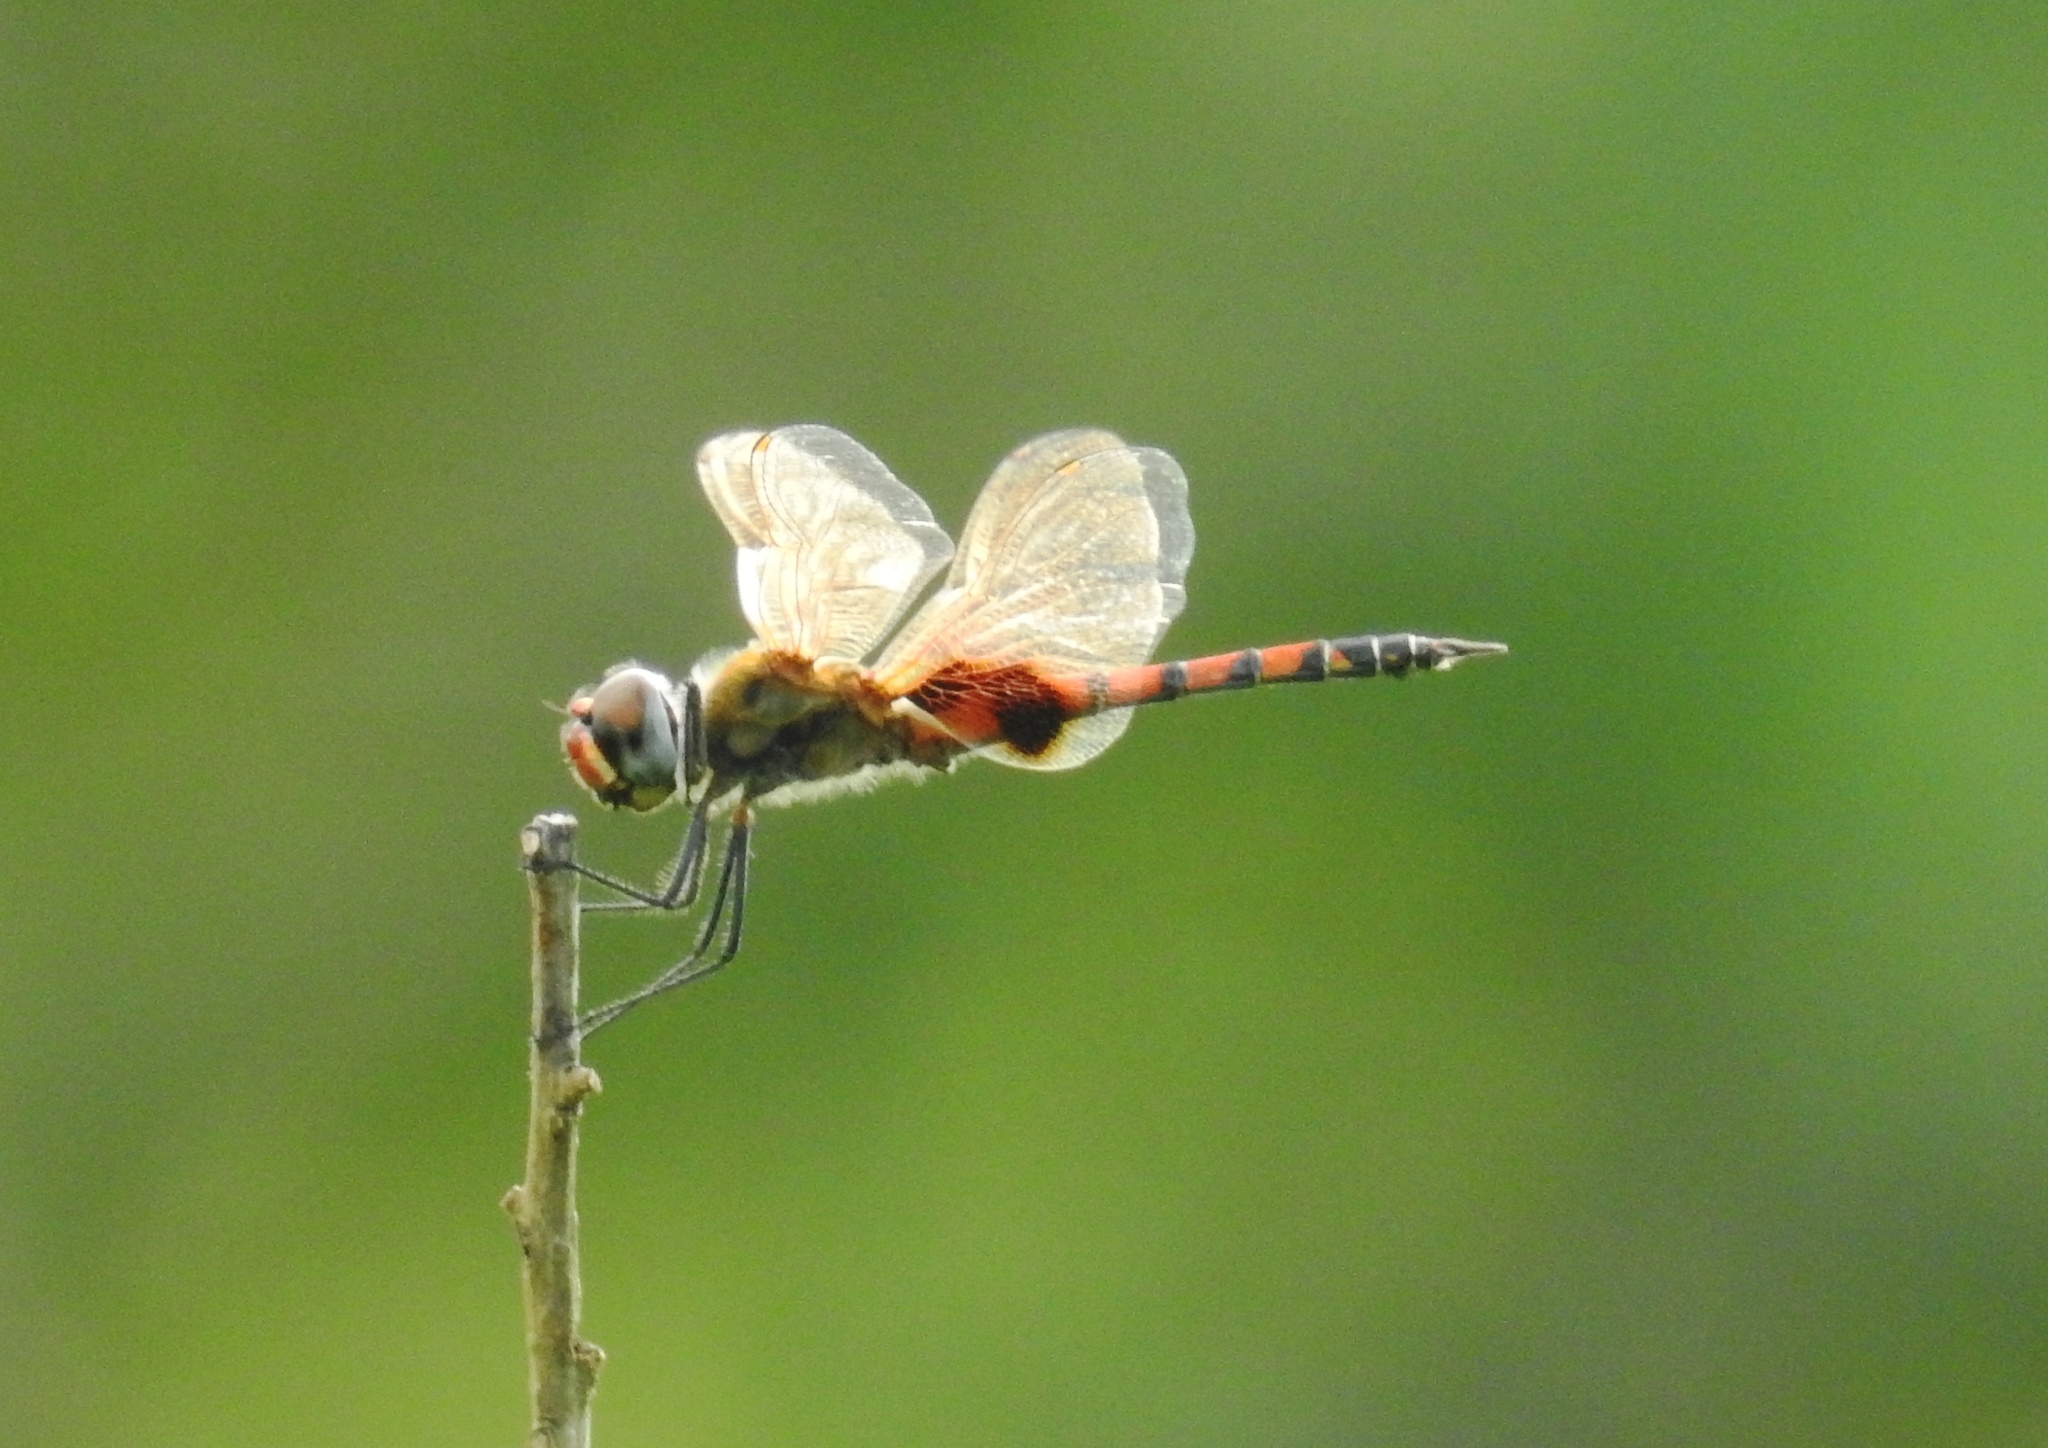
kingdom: Animalia
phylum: Arthropoda
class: Insecta
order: Odonata
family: Libellulidae
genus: Tramea
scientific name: Tramea basilaris
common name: Keyhole glider
